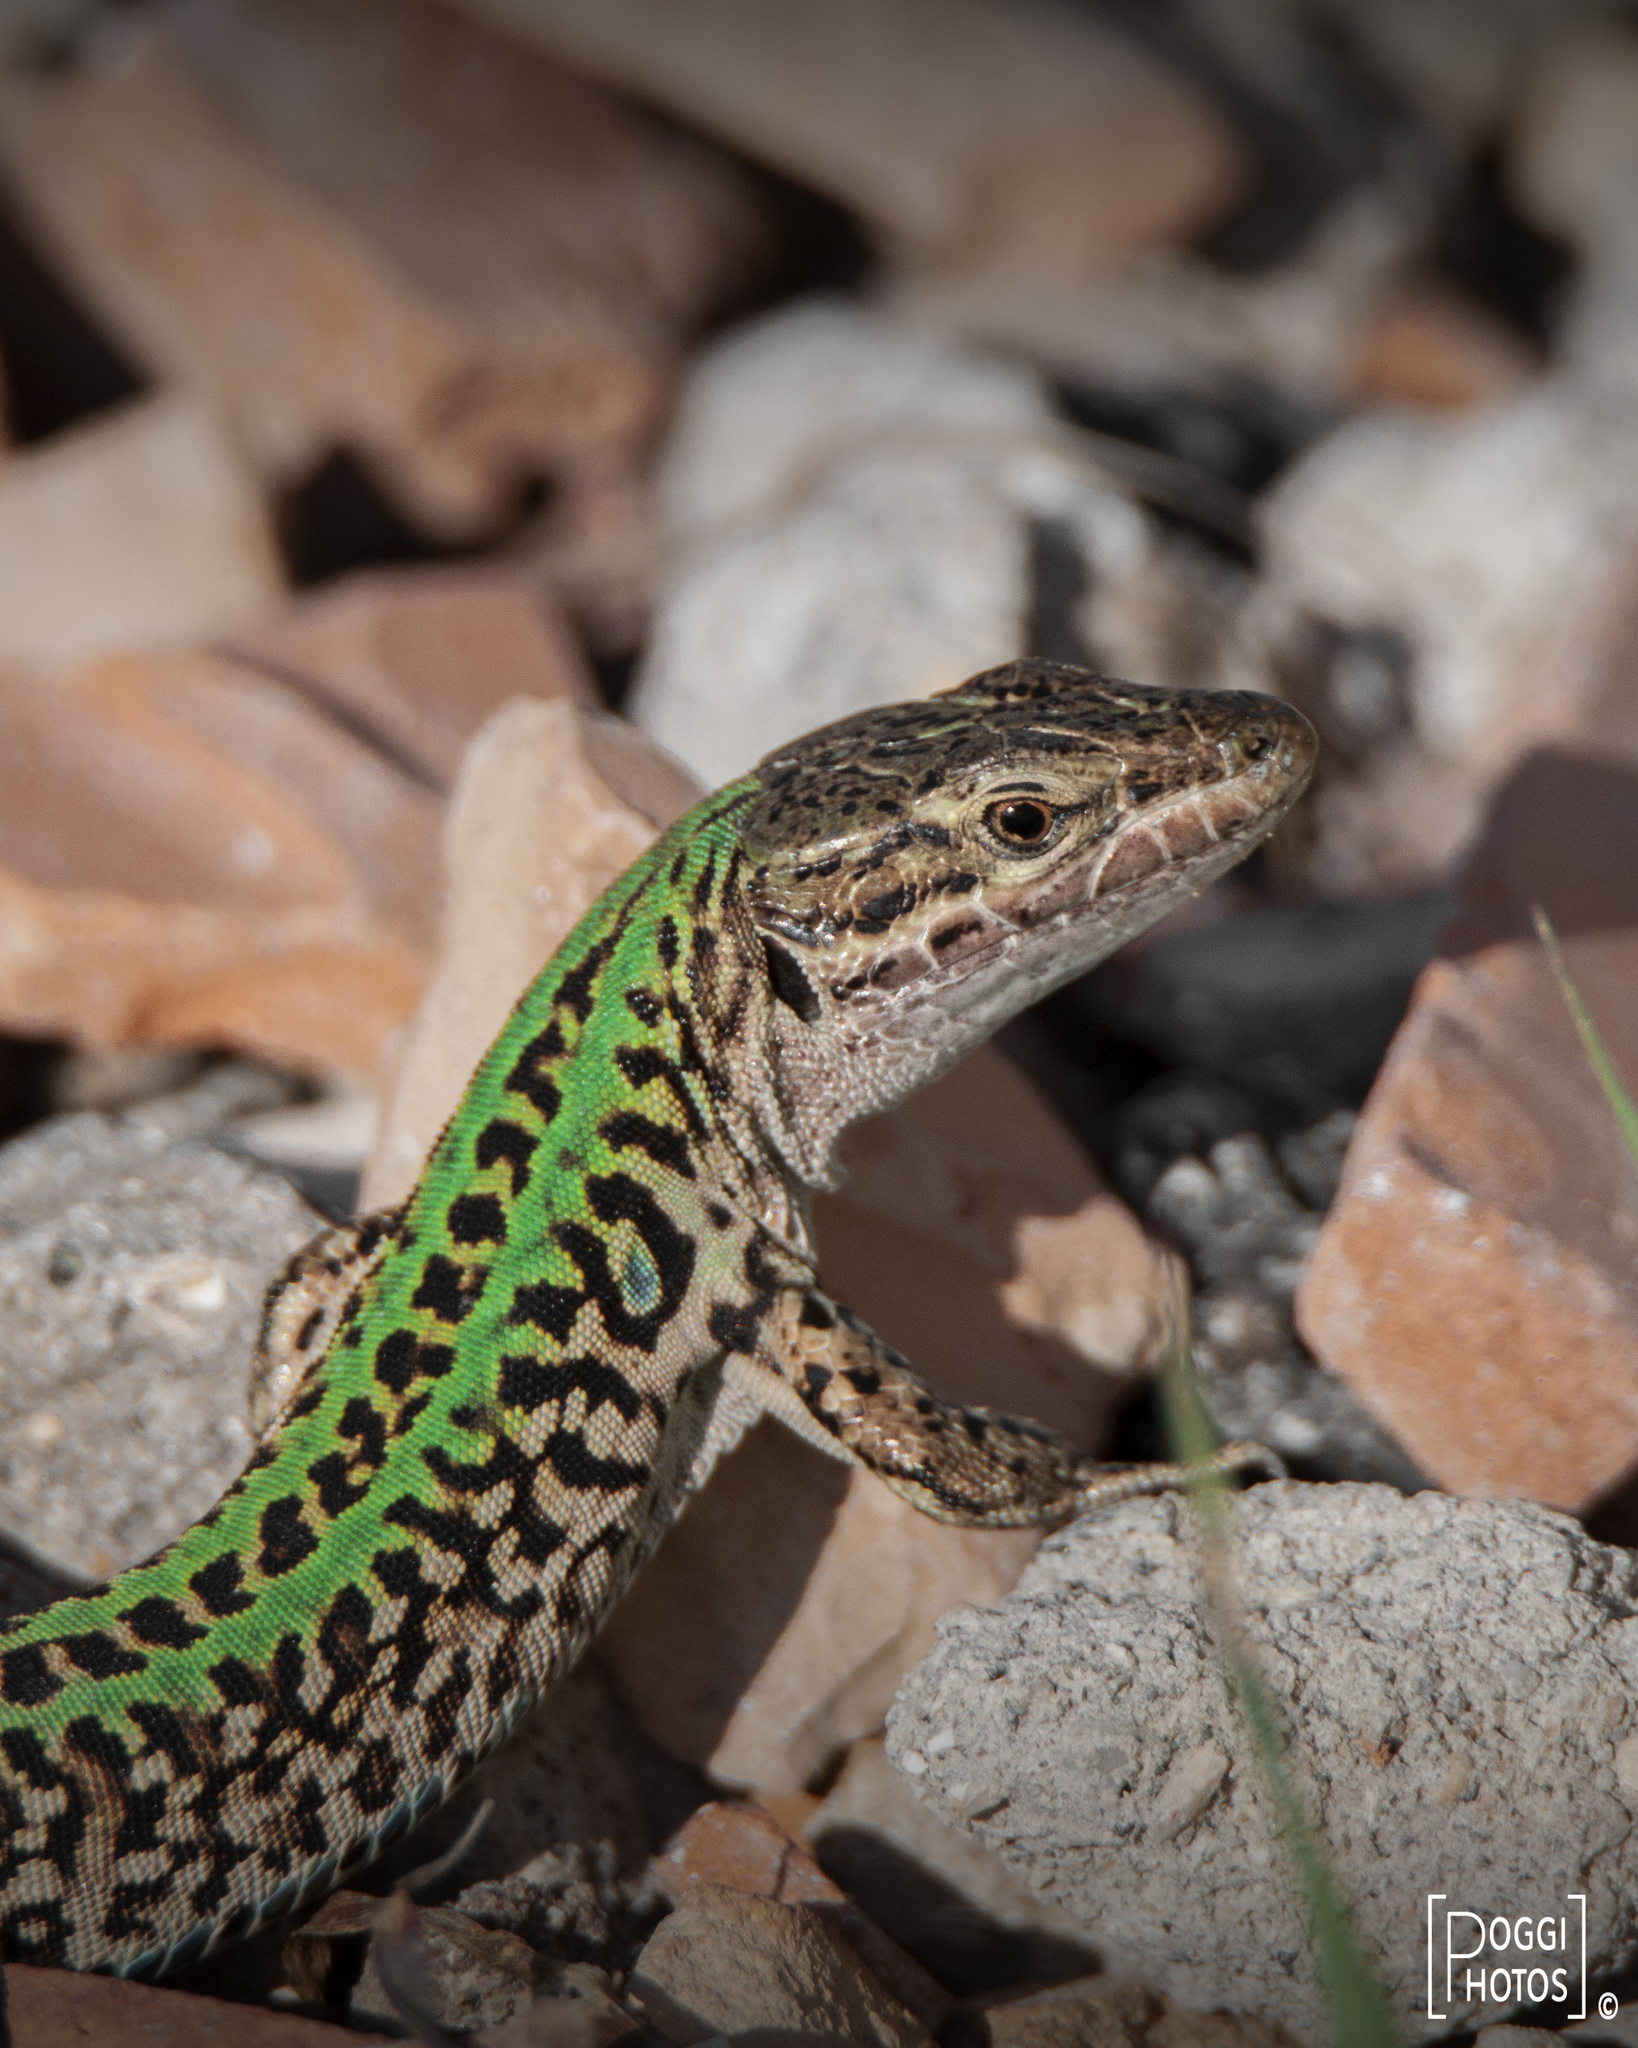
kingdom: Animalia
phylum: Chordata
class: Squamata
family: Lacertidae
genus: Podarcis
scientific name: Podarcis siculus
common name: Italian wall lizard
